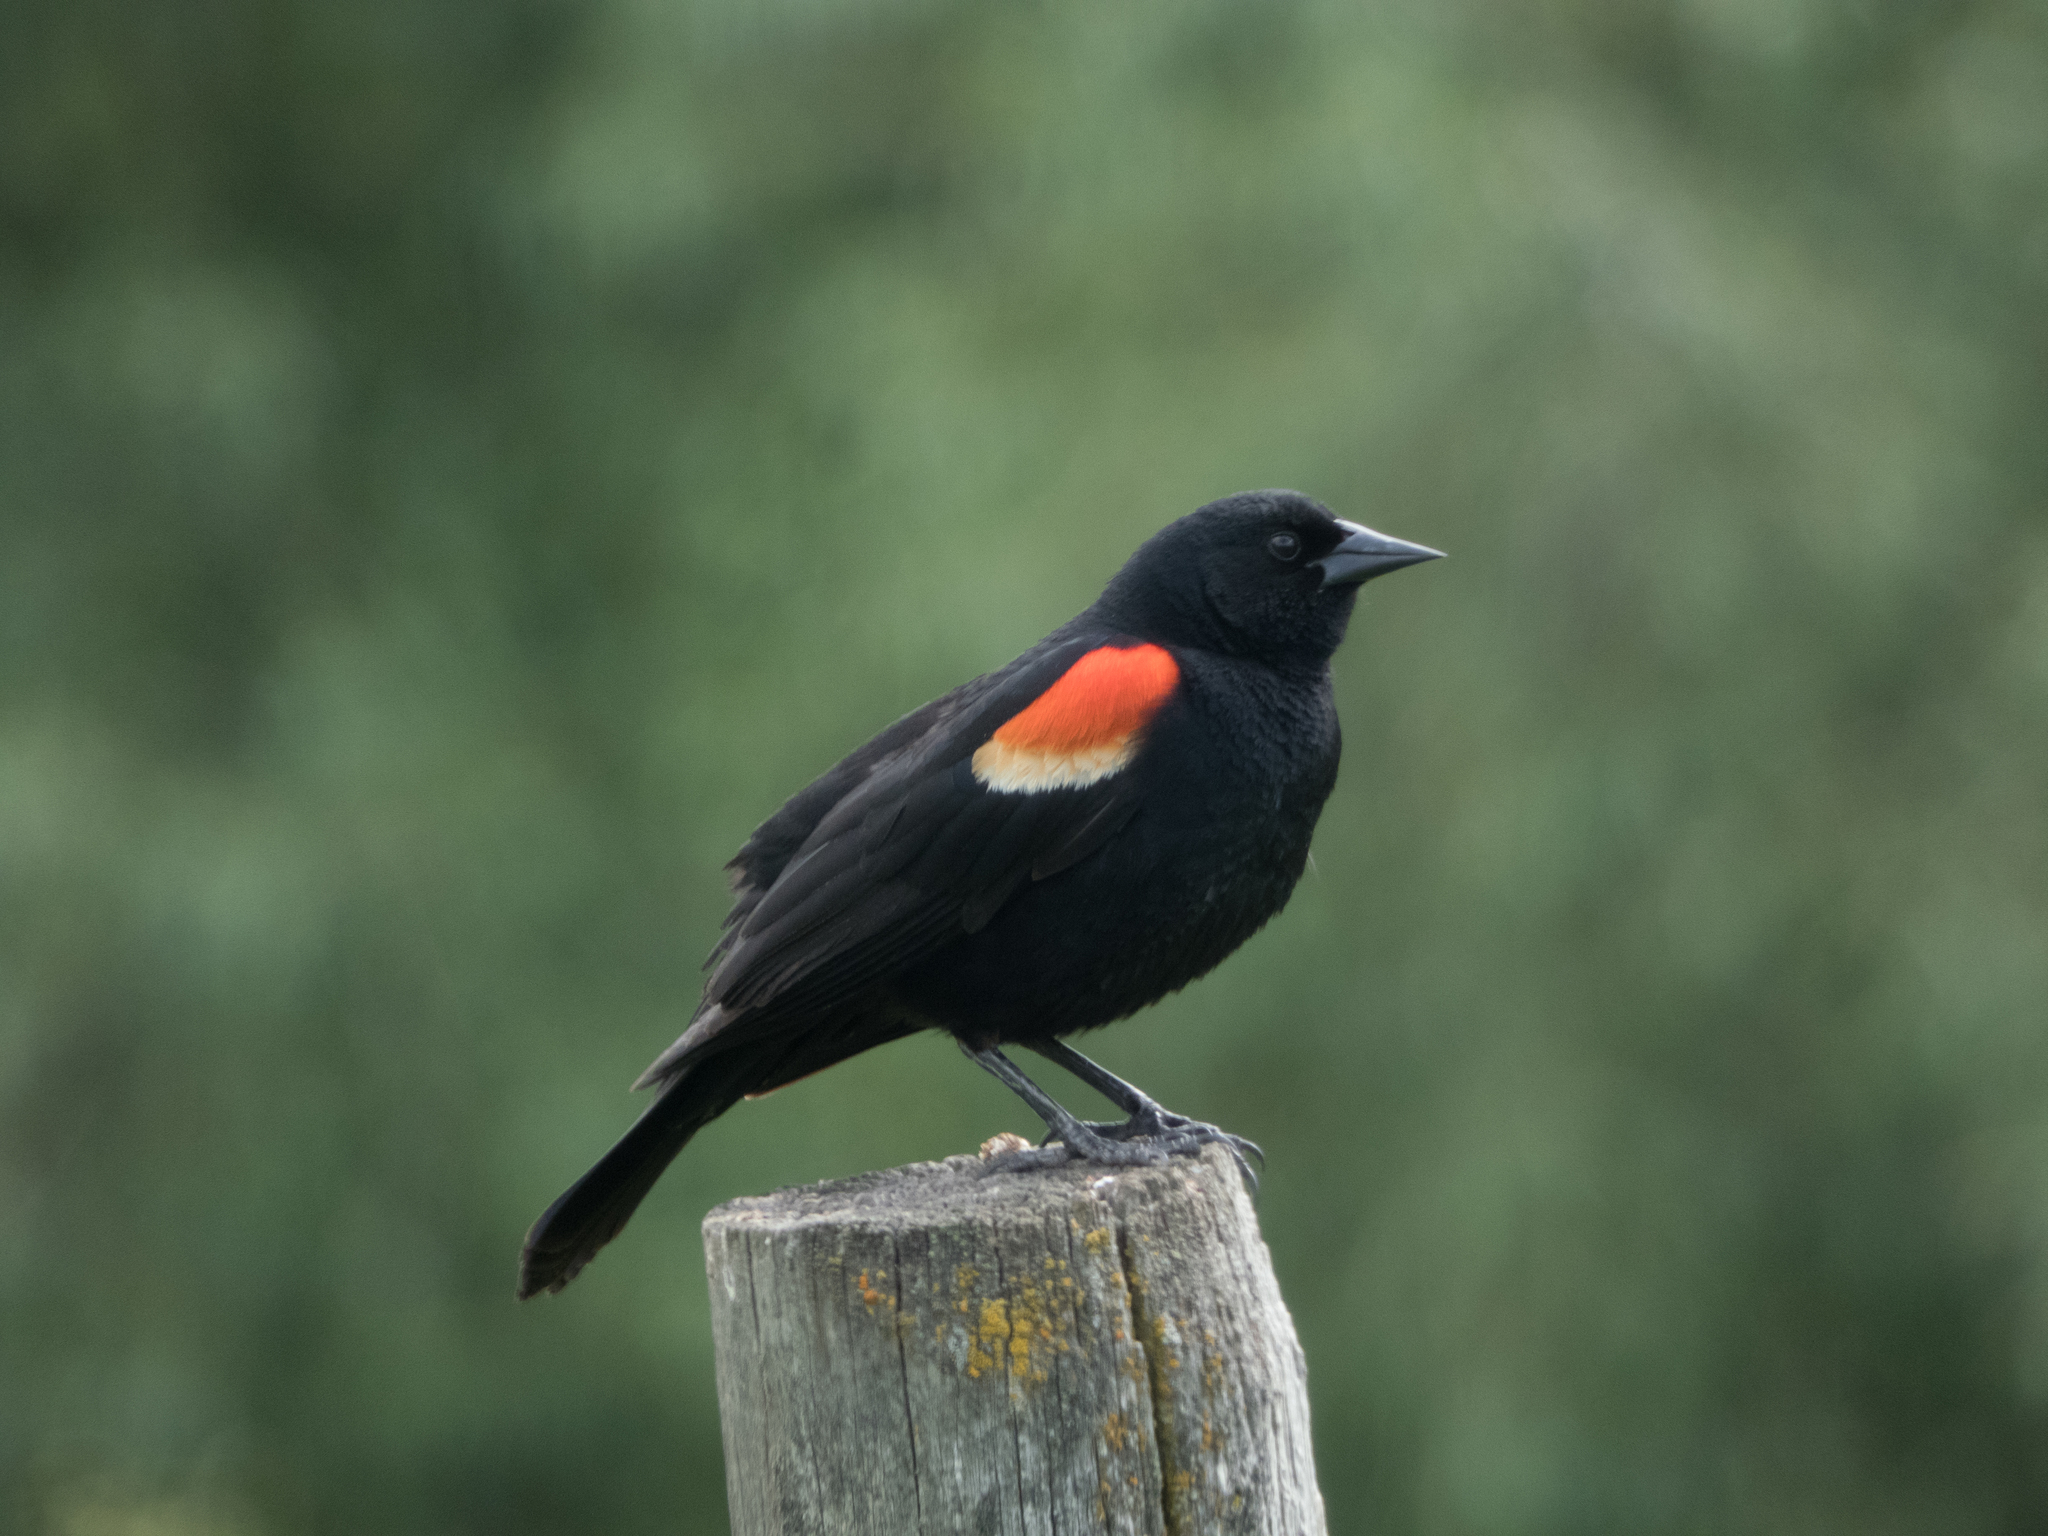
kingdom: Animalia
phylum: Chordata
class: Aves
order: Passeriformes
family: Icteridae
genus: Agelaius
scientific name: Agelaius phoeniceus
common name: Red-winged blackbird
